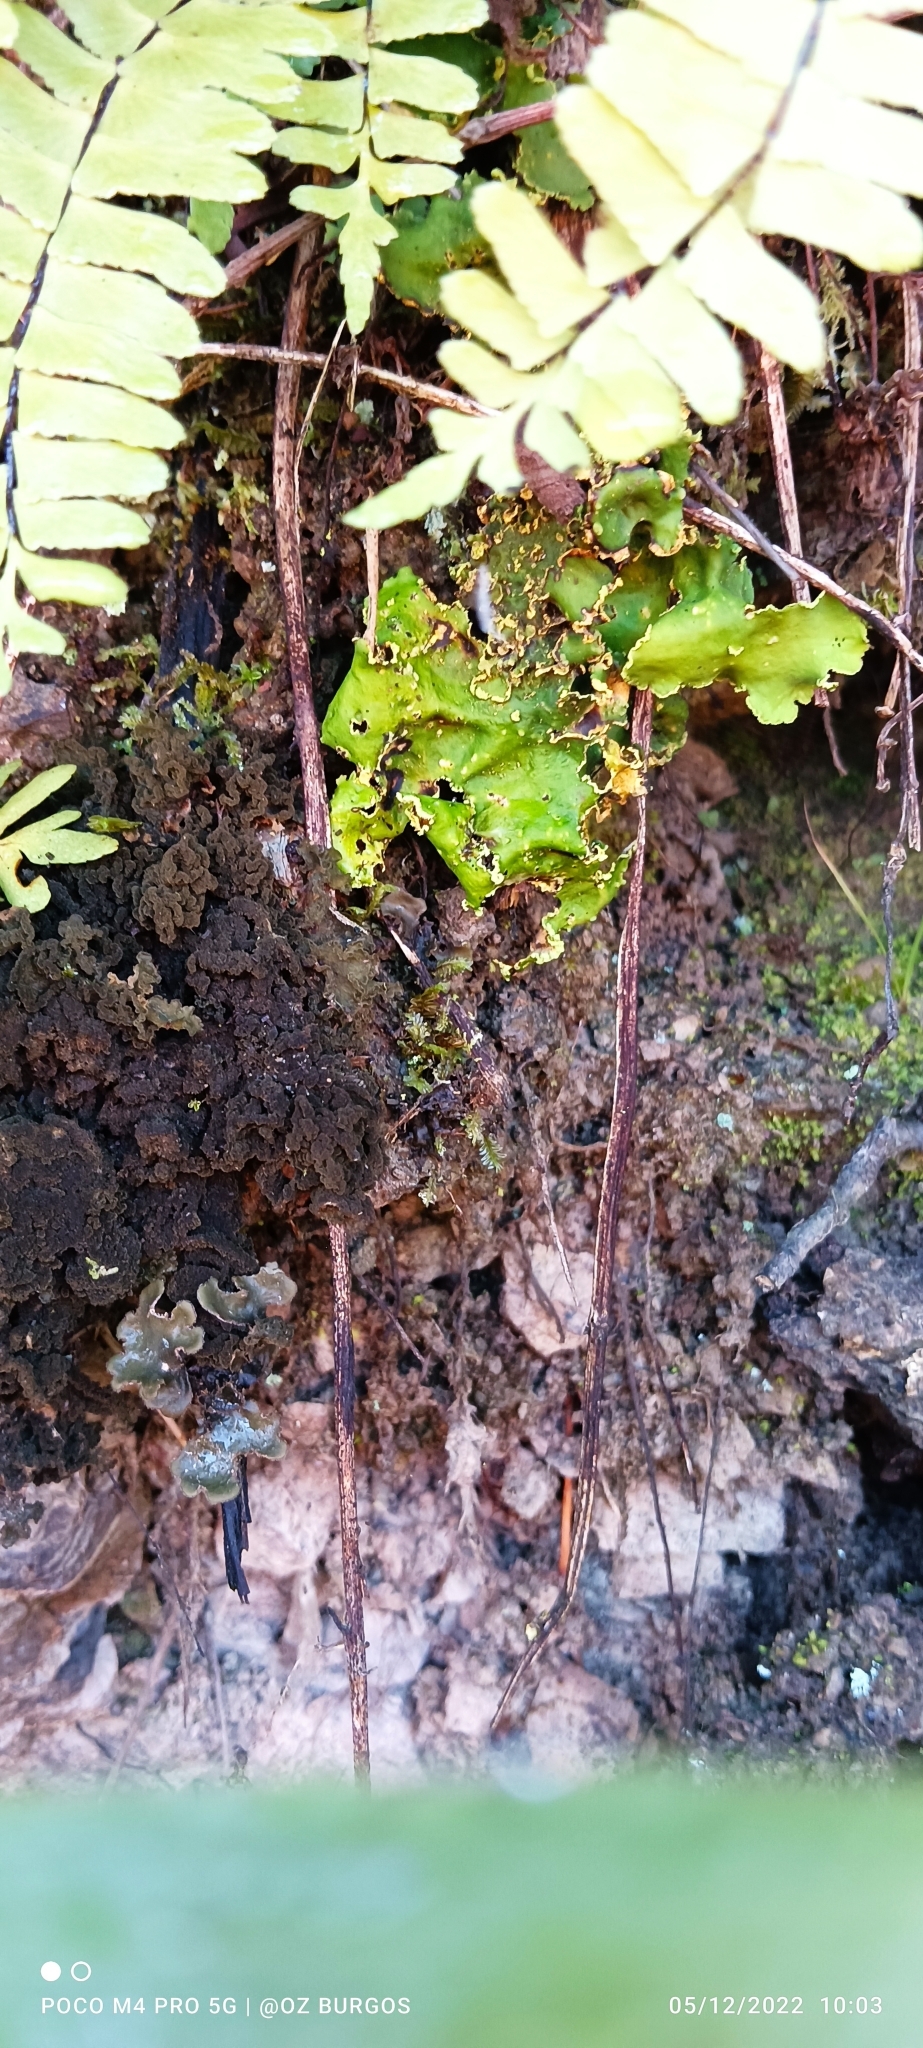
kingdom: Fungi
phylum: Ascomycota
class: Lecanoromycetes
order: Peltigerales
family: Lobariaceae
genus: Pseudocyphellaria
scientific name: Pseudocyphellaria aurata
